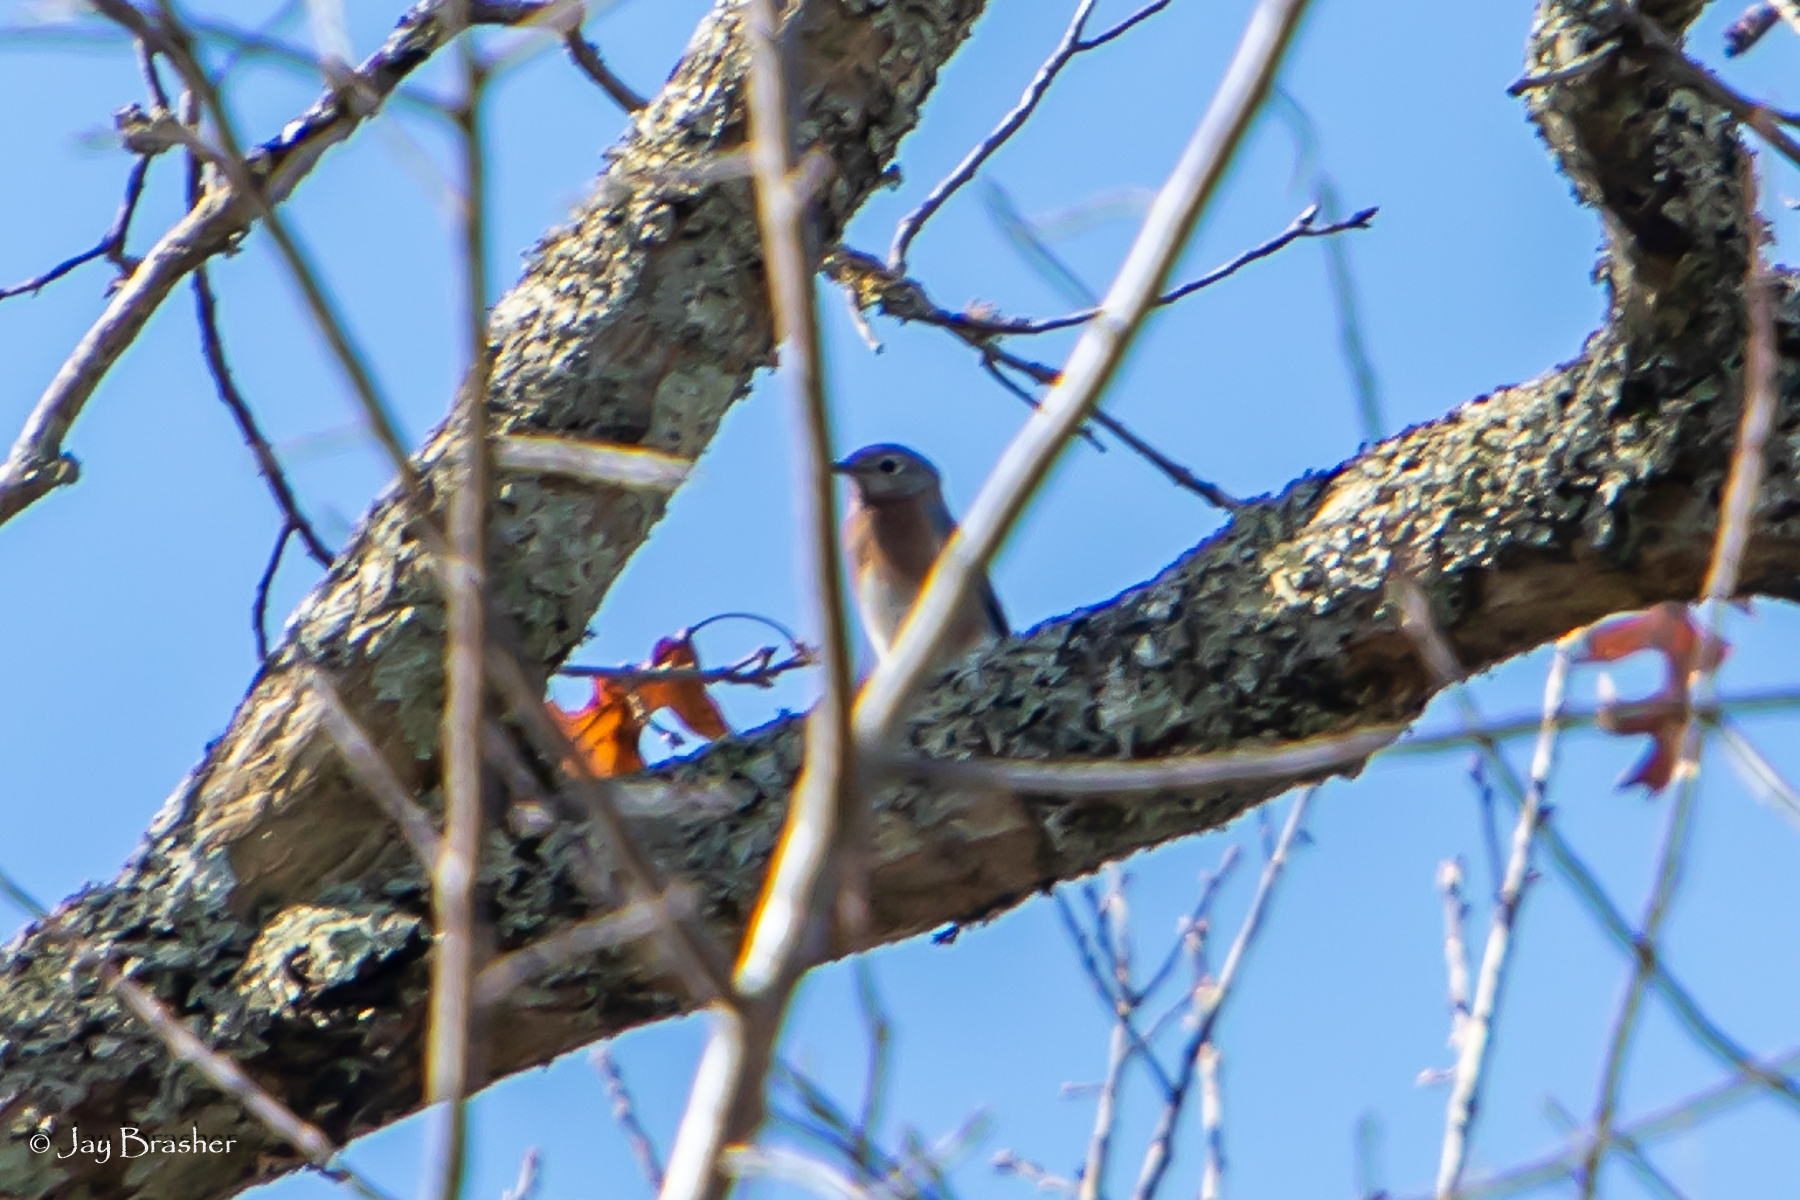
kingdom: Animalia
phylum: Chordata
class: Aves
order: Passeriformes
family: Turdidae
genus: Sialia
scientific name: Sialia sialis
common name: Eastern bluebird
